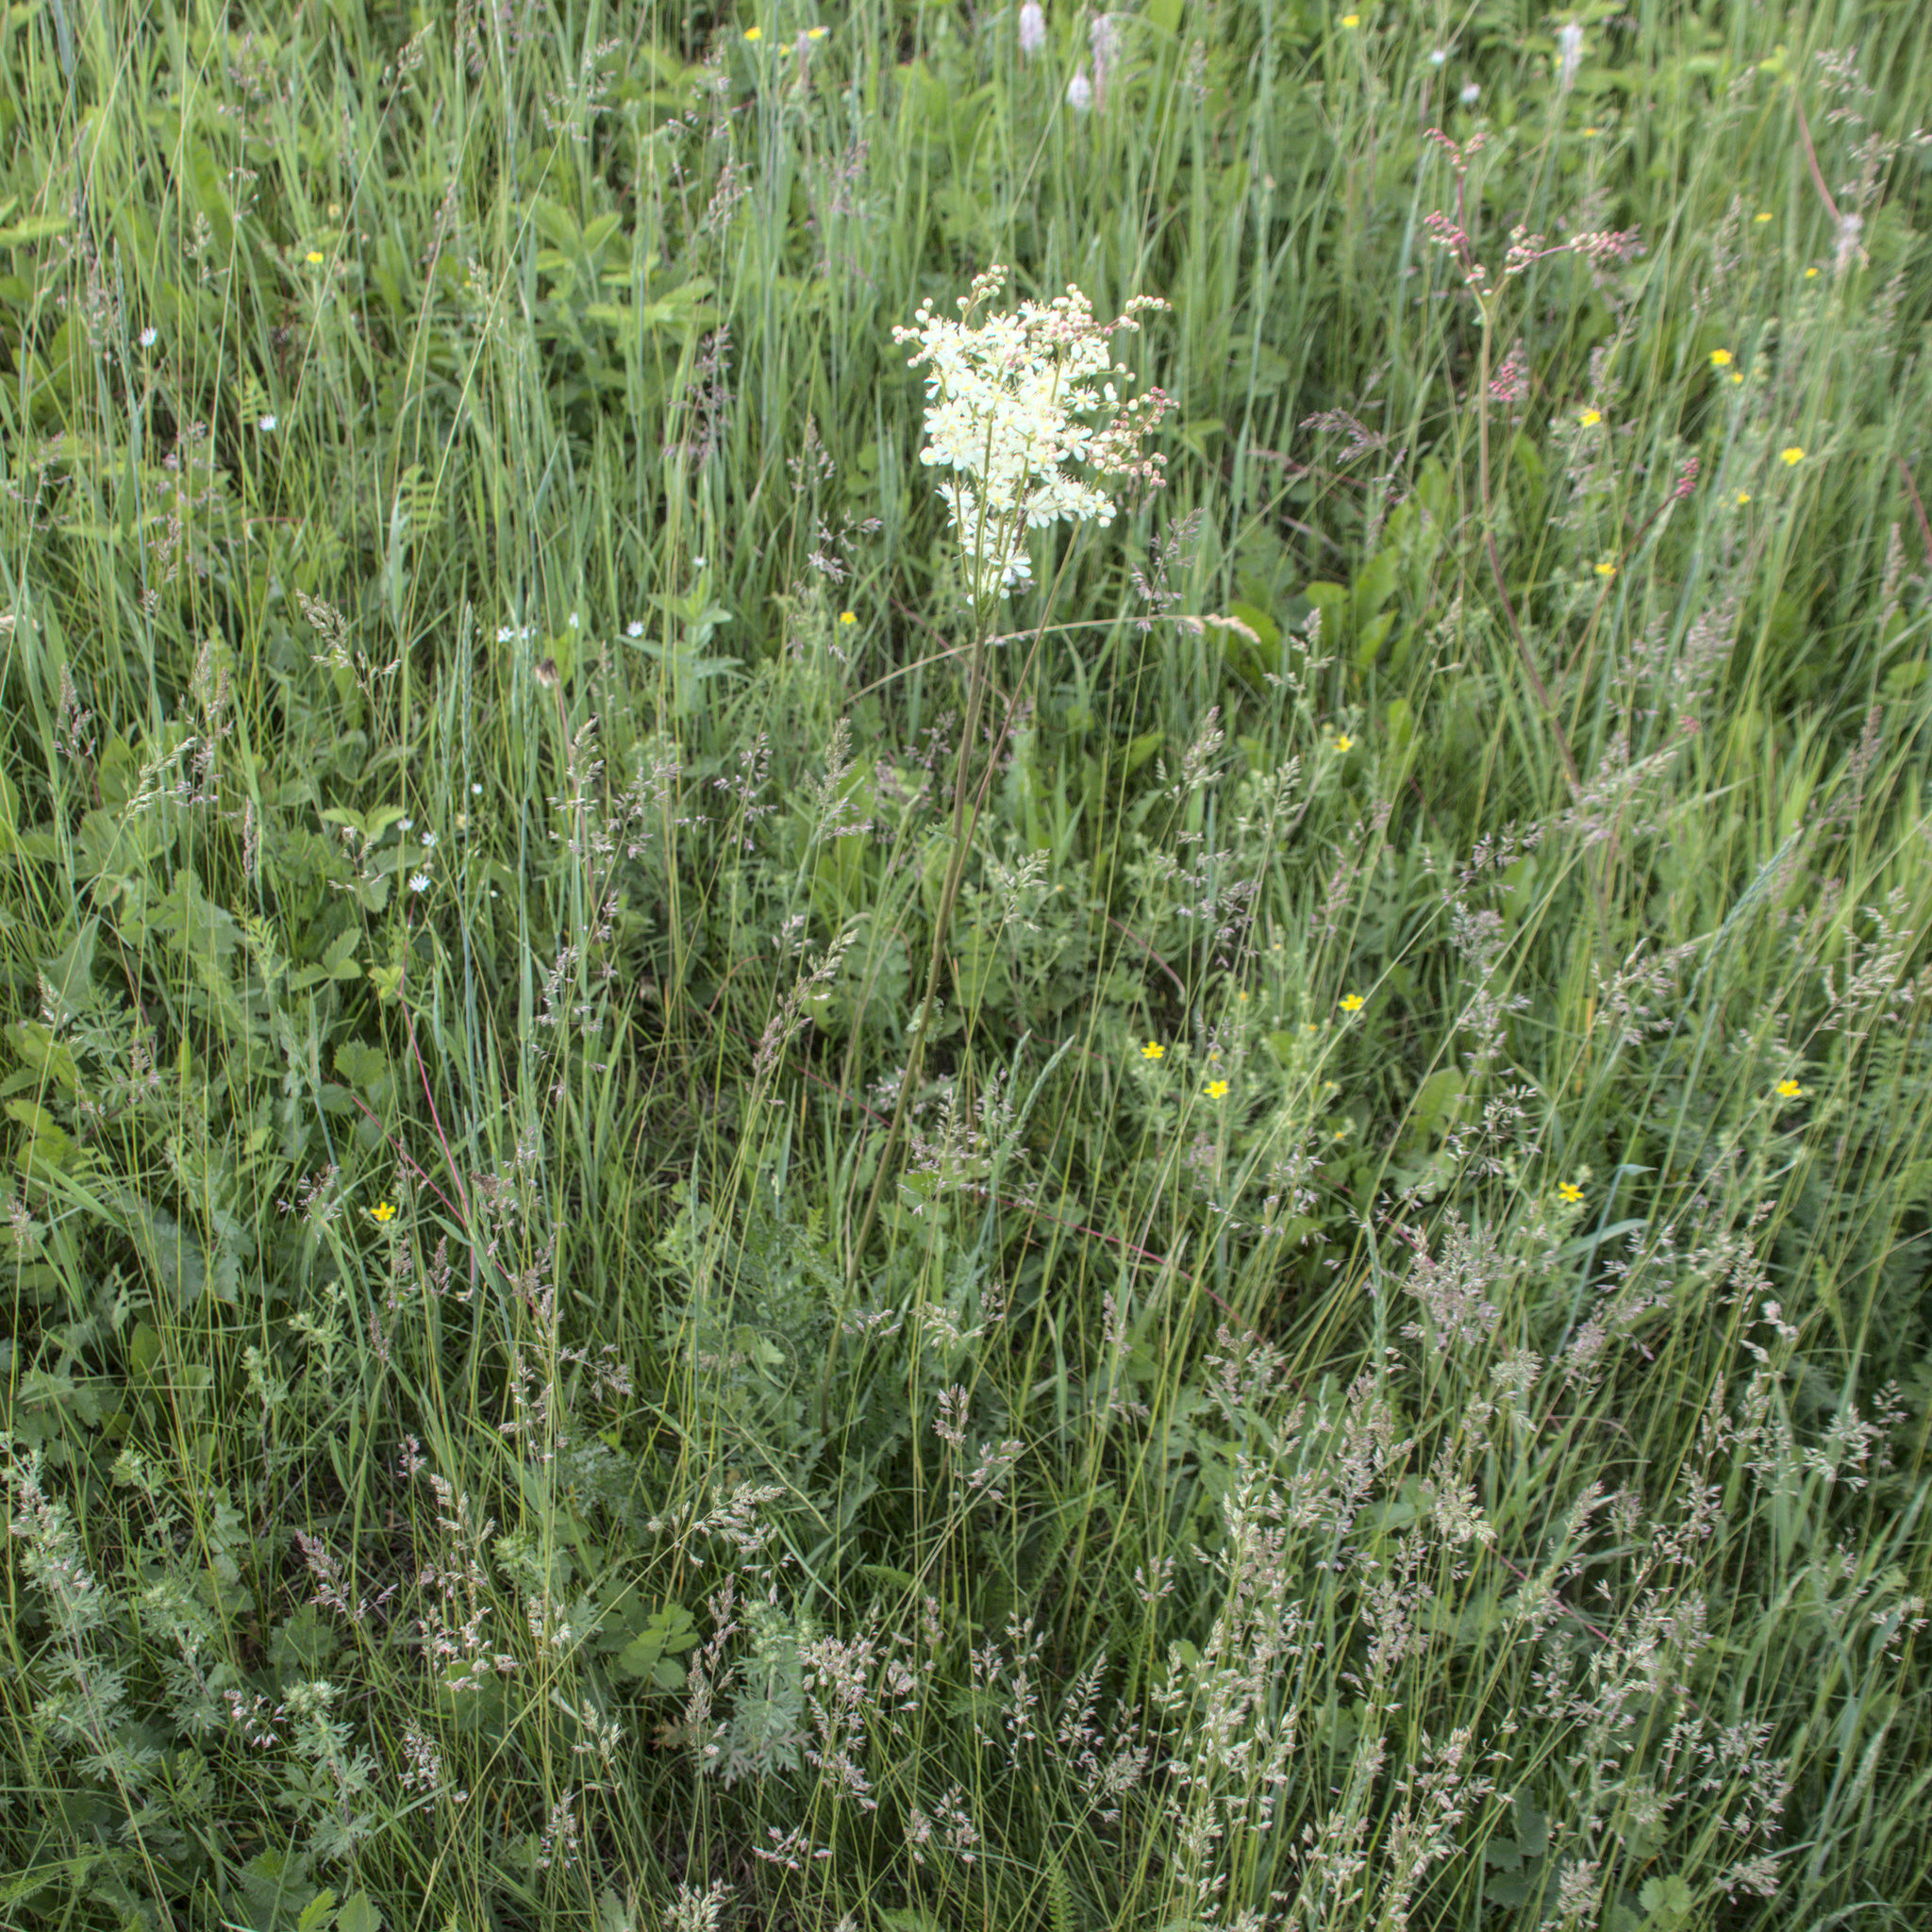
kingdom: Plantae
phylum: Tracheophyta
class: Magnoliopsida
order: Rosales
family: Rosaceae
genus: Filipendula
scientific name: Filipendula vulgaris
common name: Dropwort
